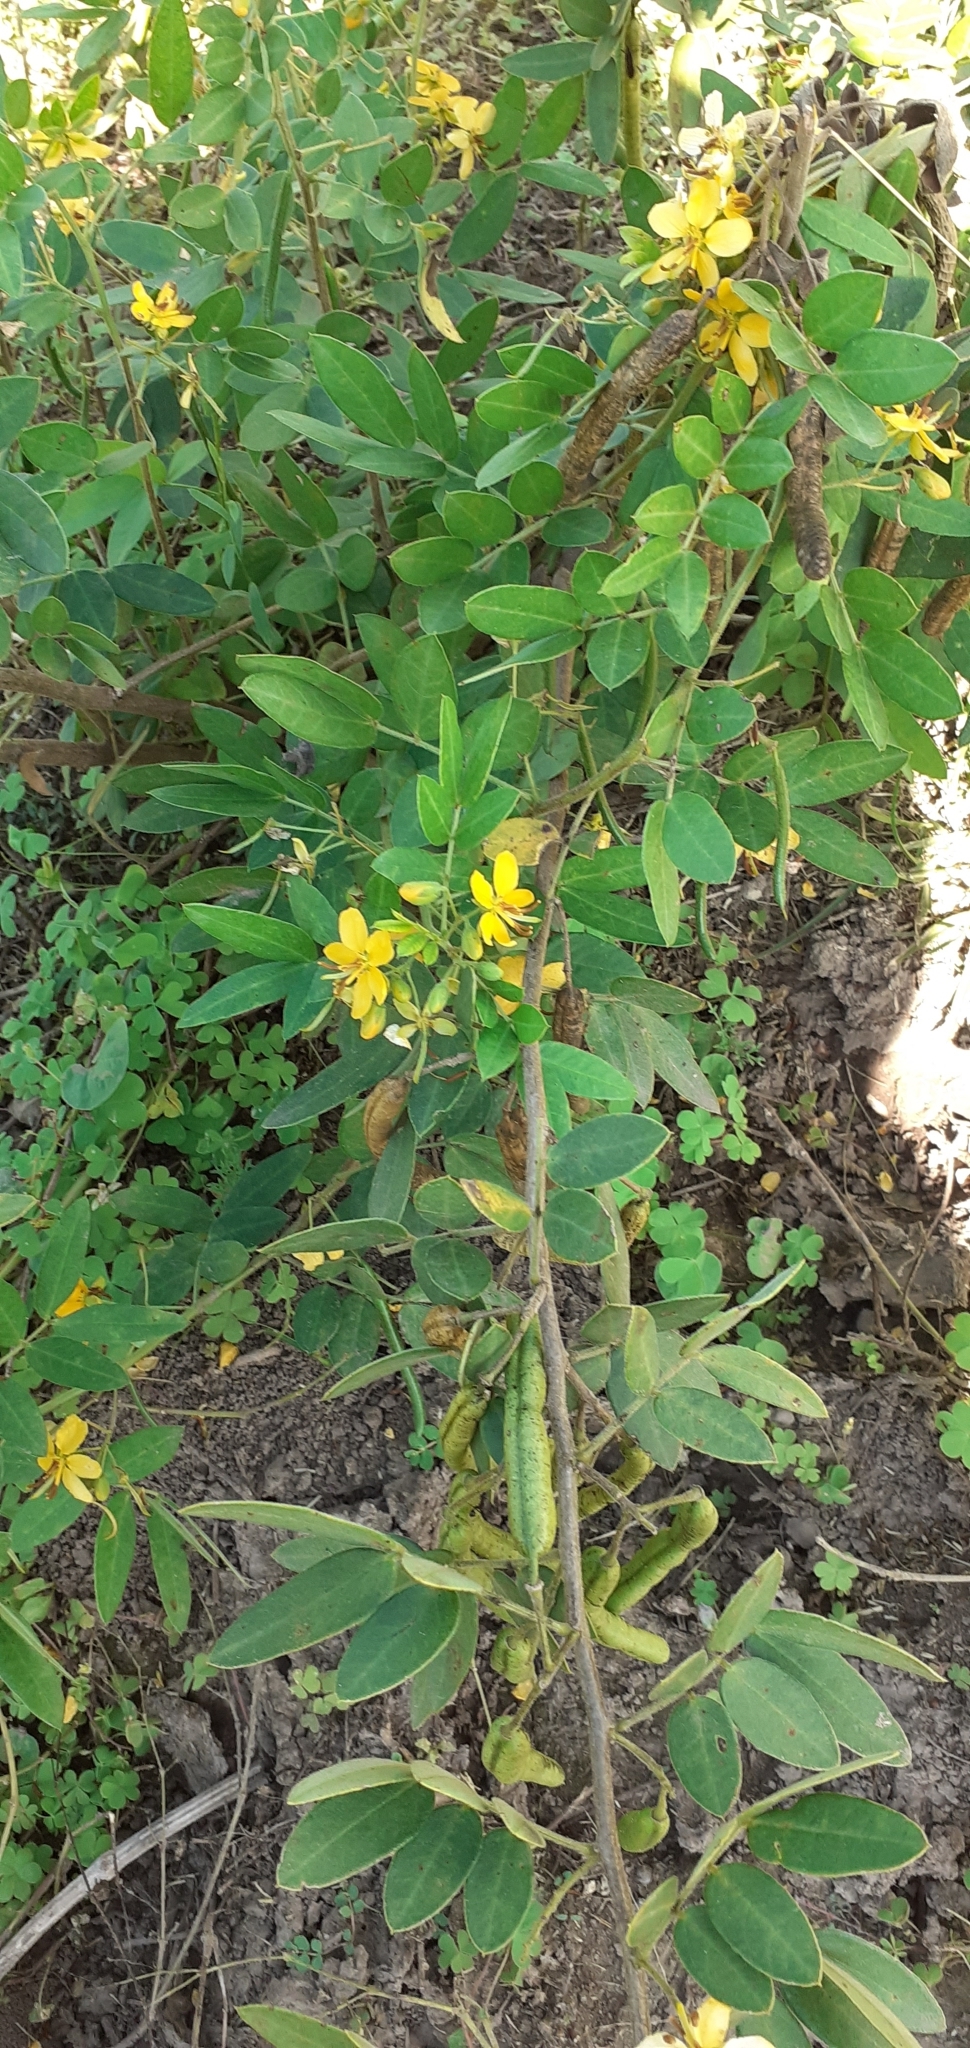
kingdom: Plantae
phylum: Tracheophyta
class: Magnoliopsida
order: Fabales
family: Fabaceae
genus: Senna
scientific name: Senna morongii
